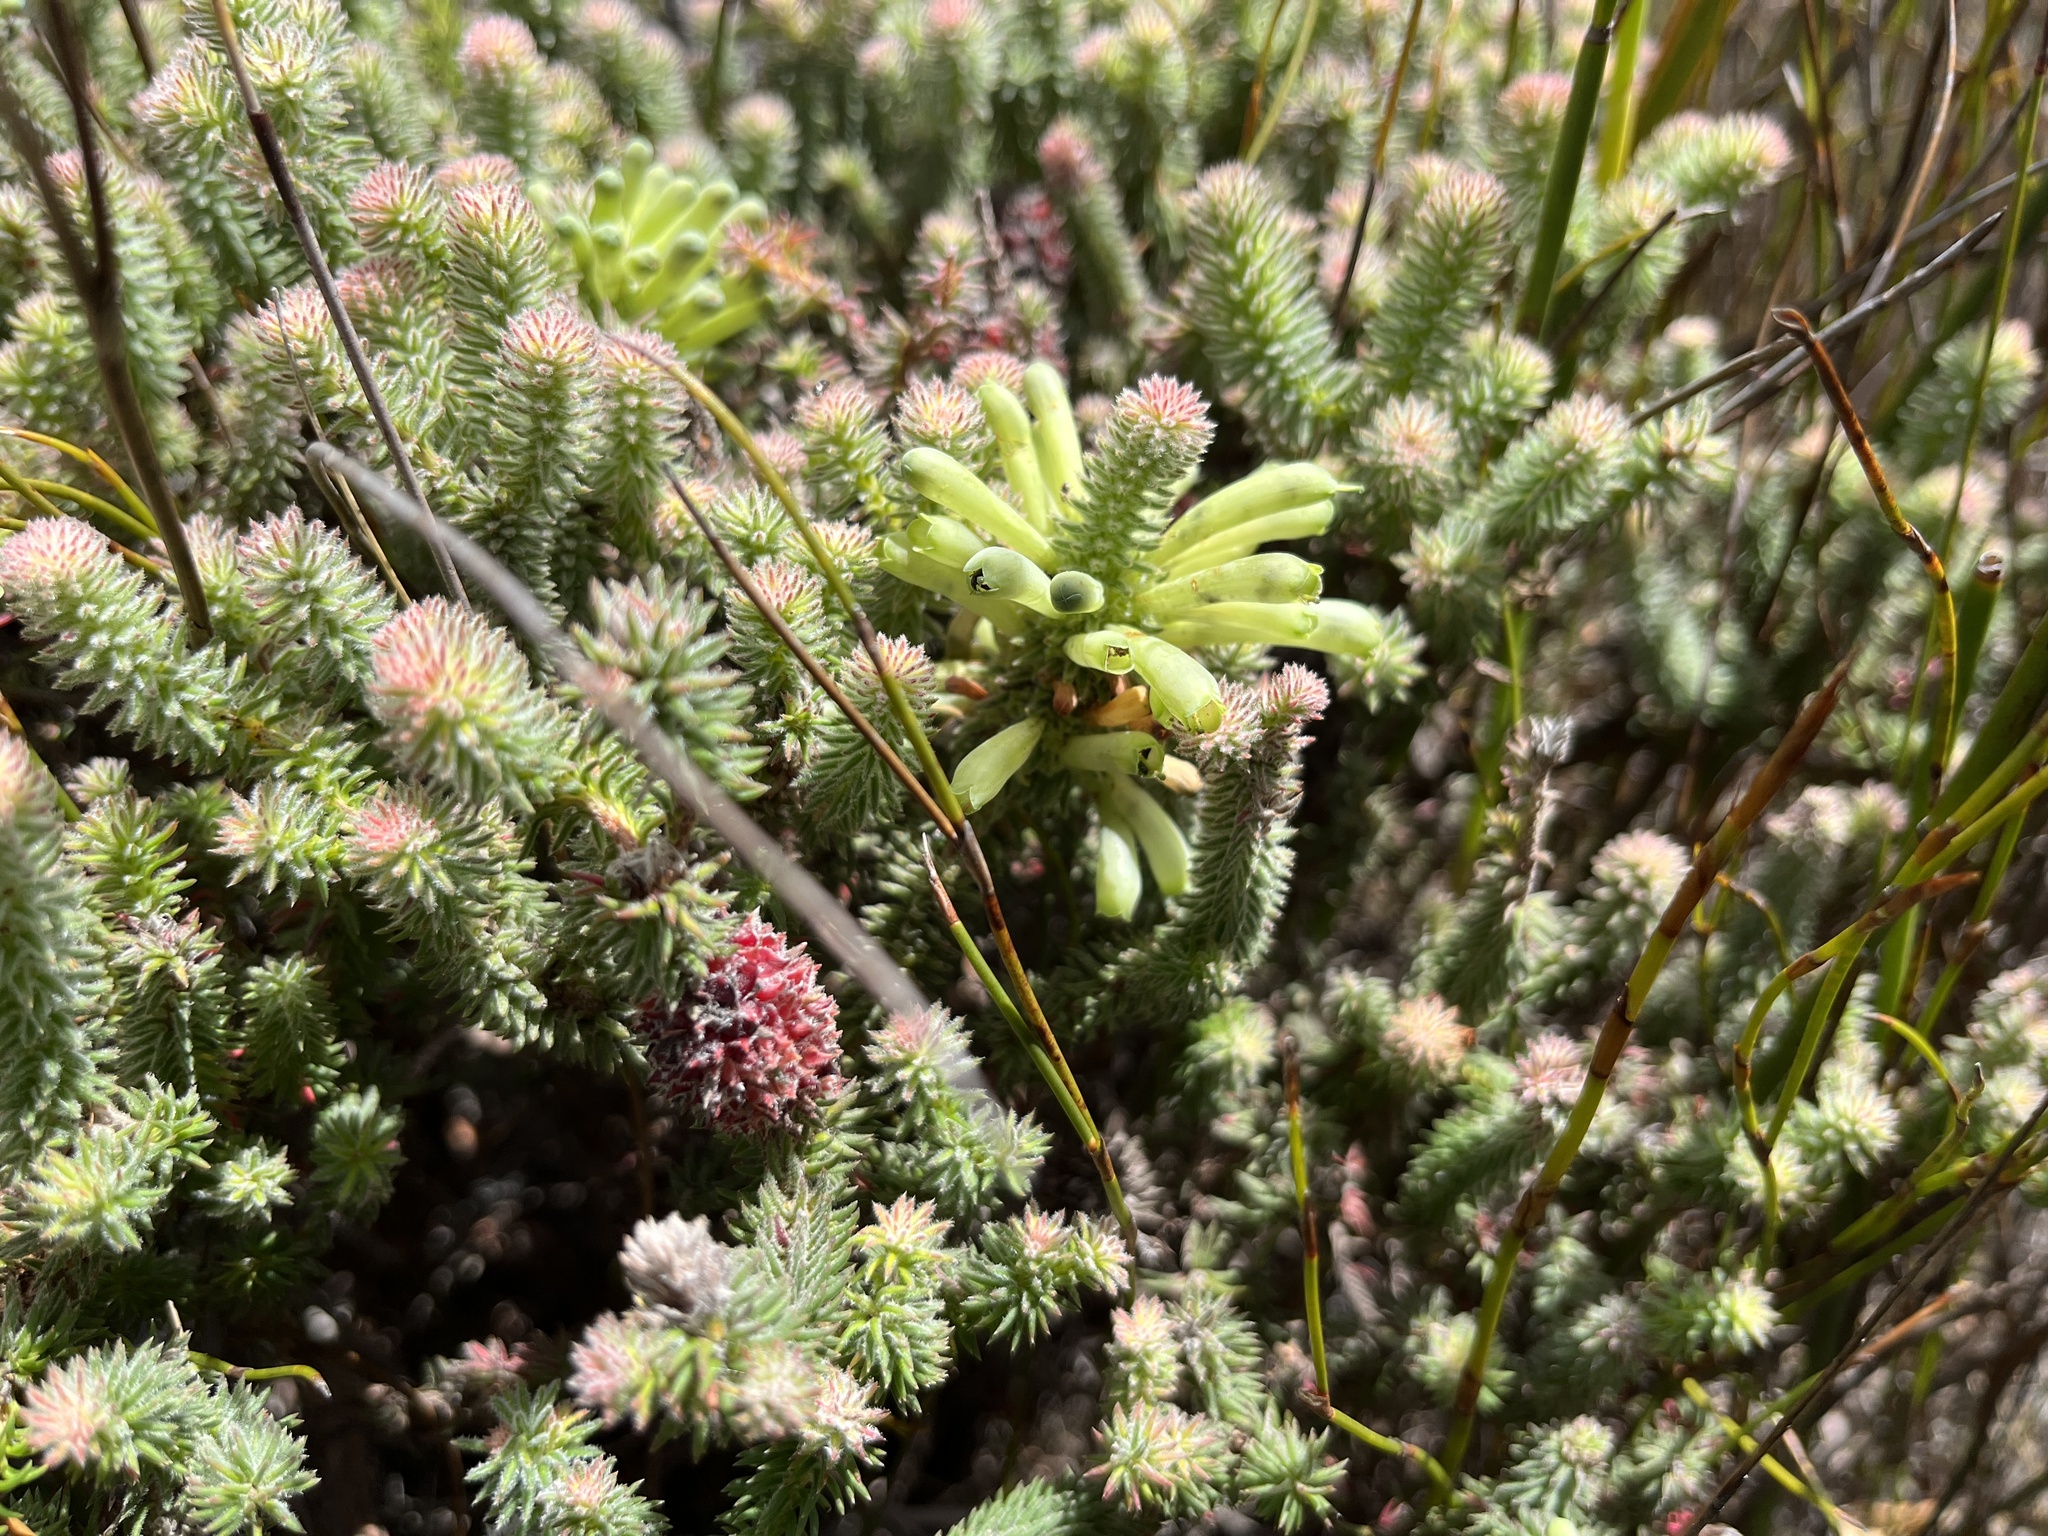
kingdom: Plantae
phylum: Tracheophyta
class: Magnoliopsida
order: Ericales
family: Ericaceae
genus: Erica
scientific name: Erica sessiliflora
